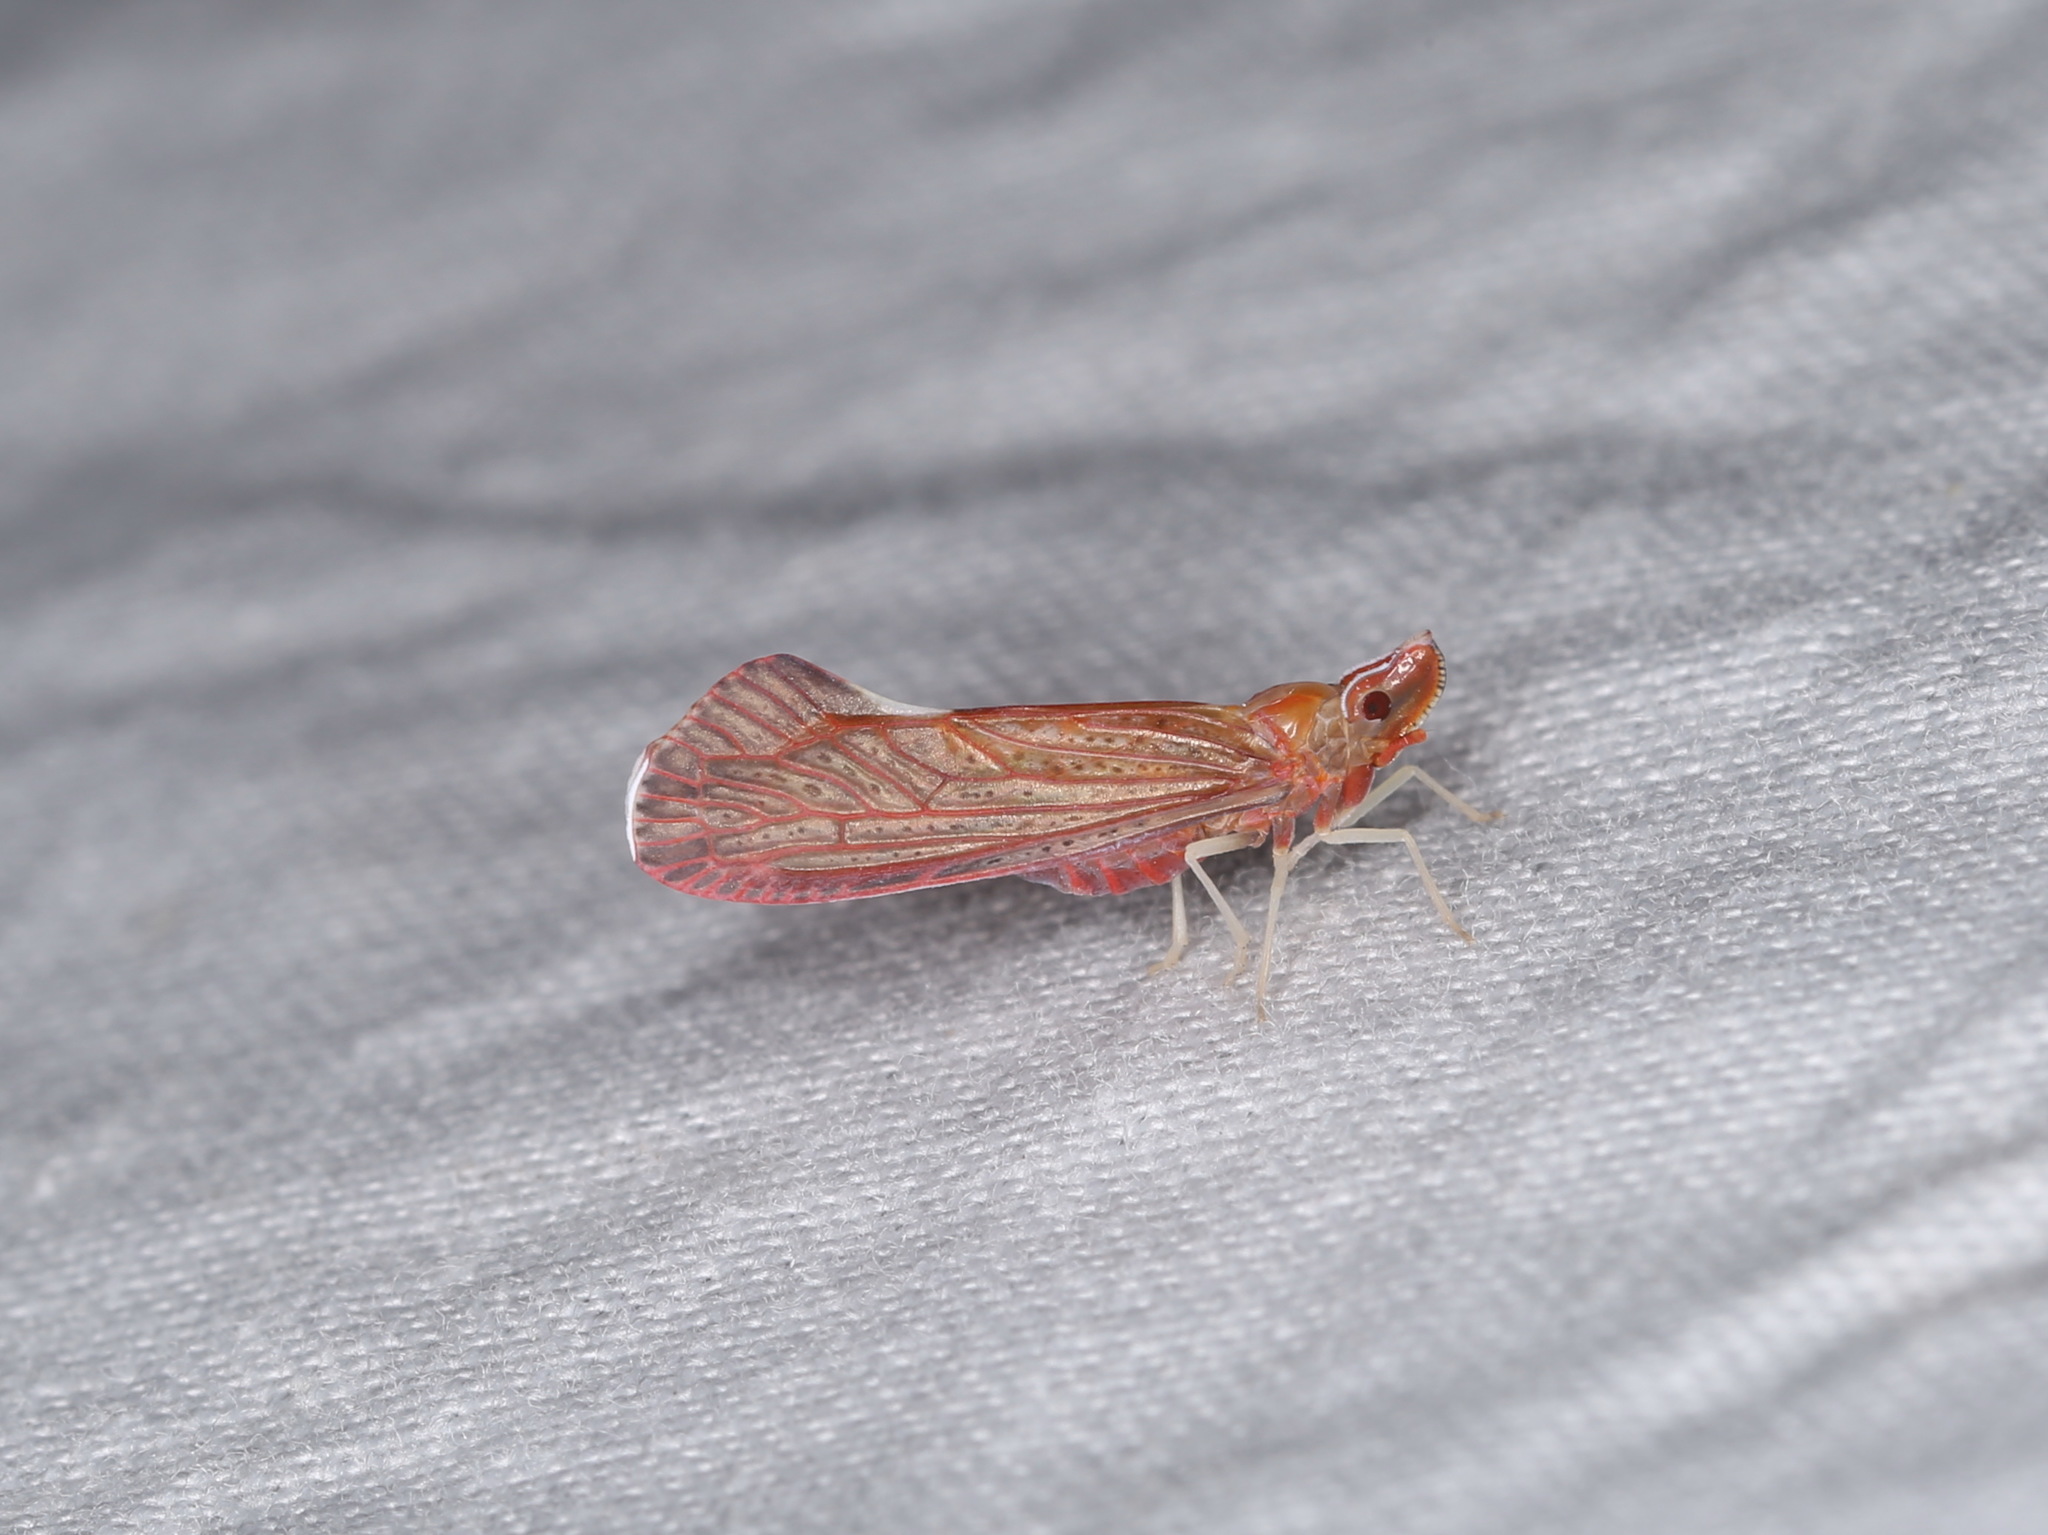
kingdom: Animalia
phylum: Arthropoda
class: Insecta
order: Hemiptera
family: Derbidae
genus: Apache
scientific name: Apache californicum
